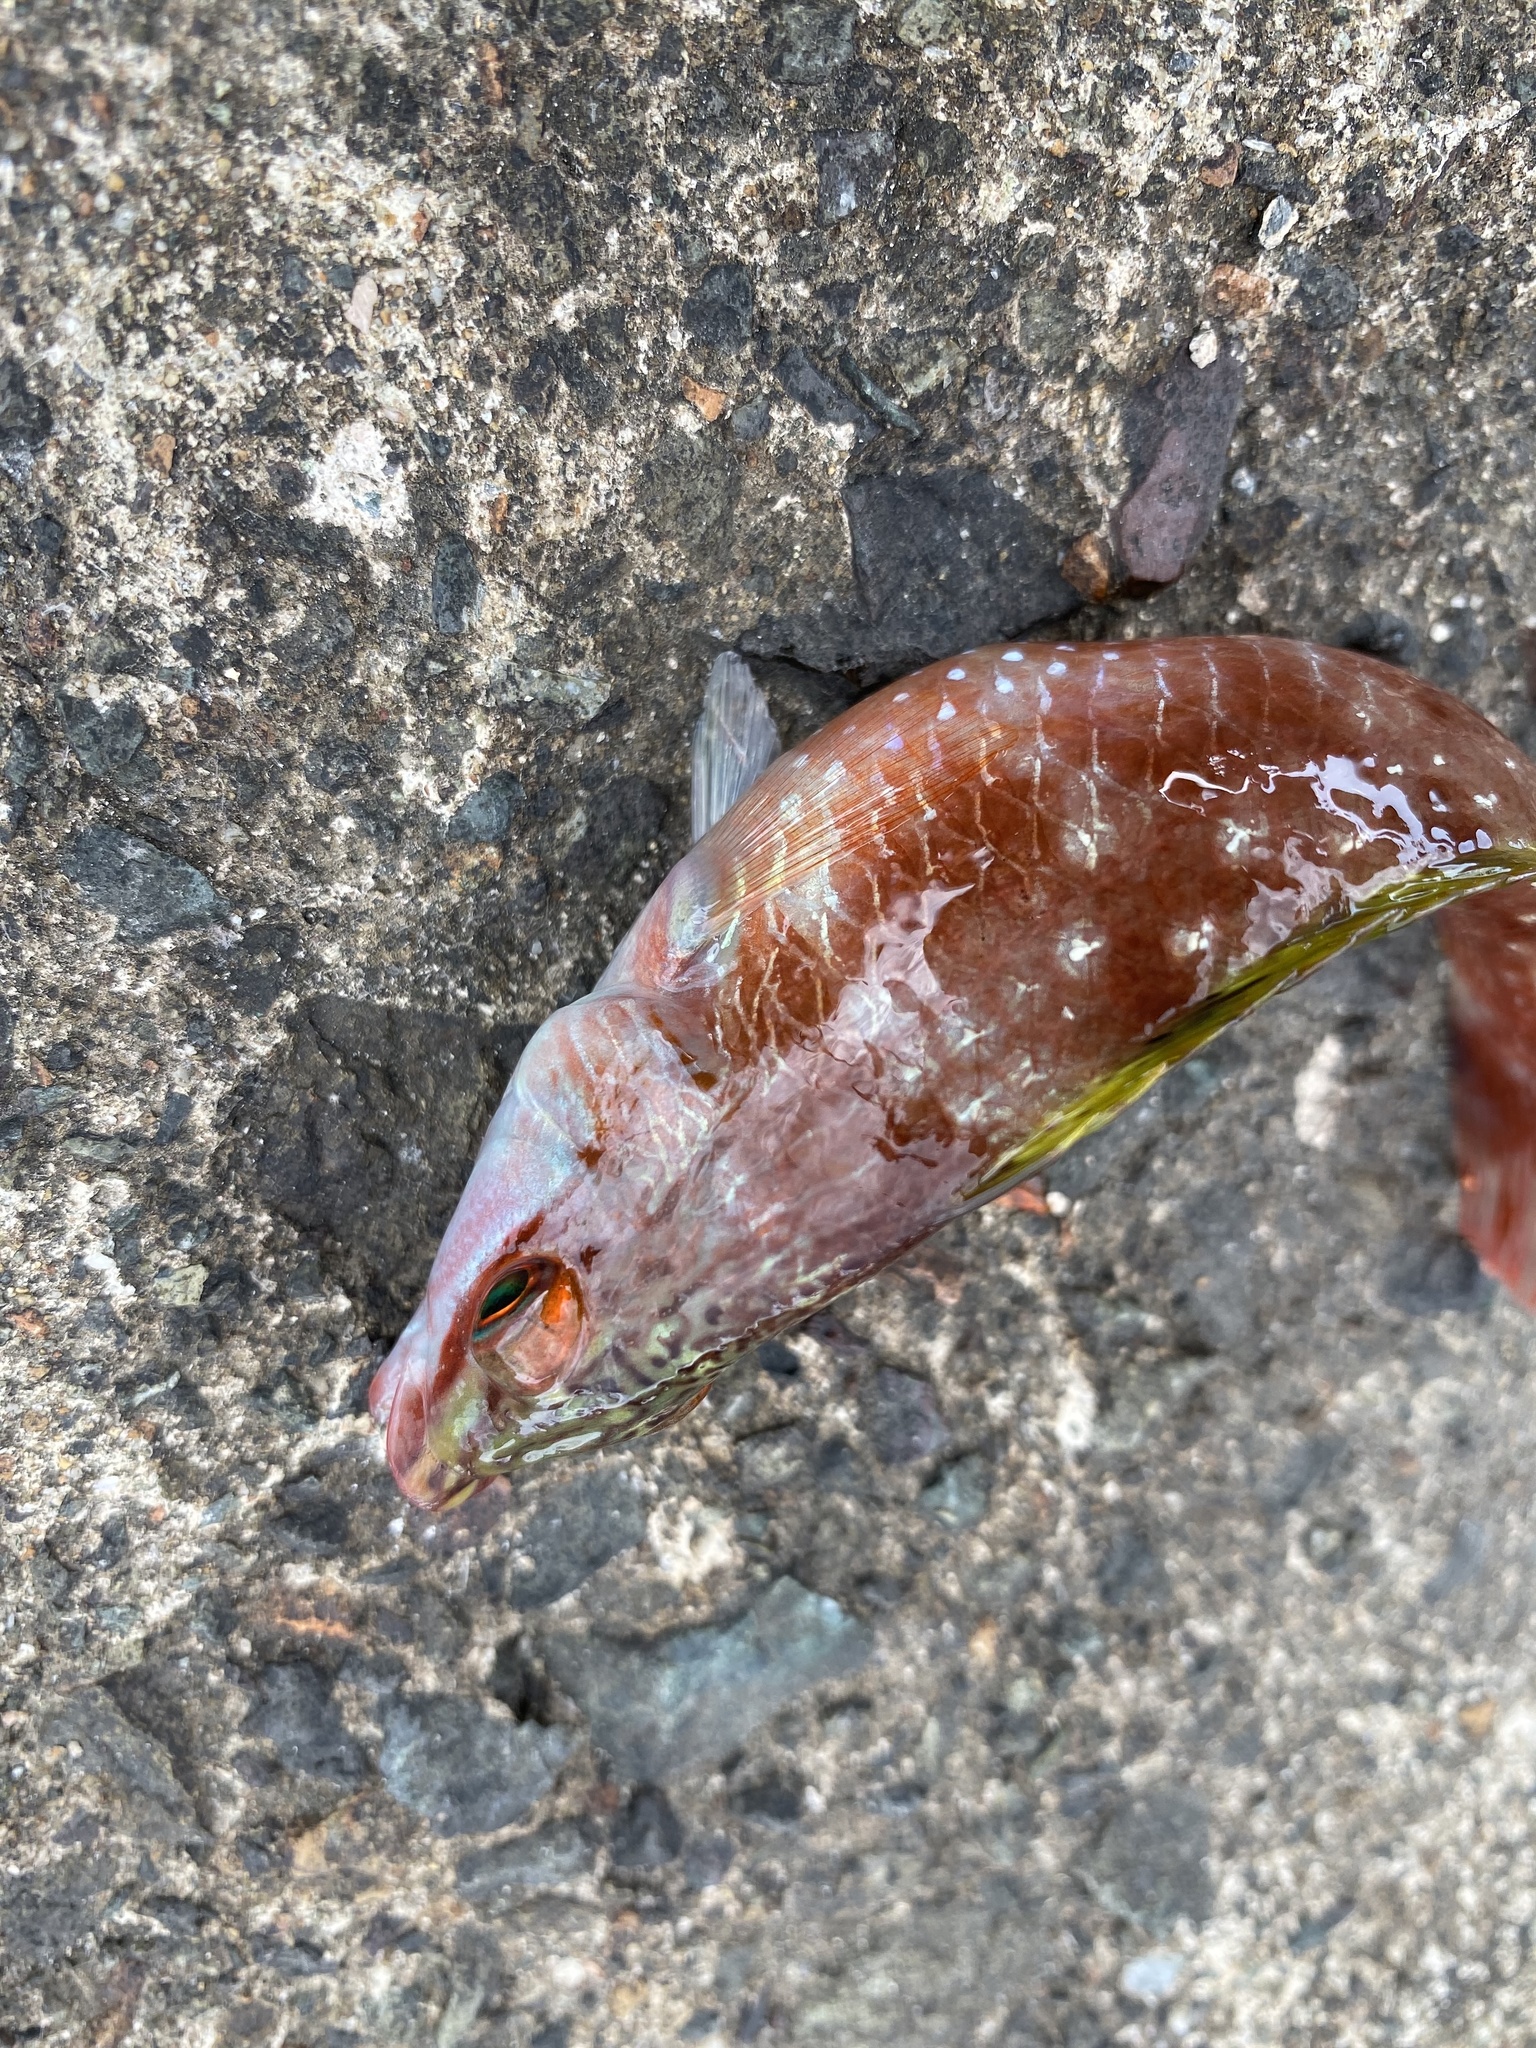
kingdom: Animalia
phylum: Chordata
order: Perciformes
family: Labridae
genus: Pseudolabrus
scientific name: Pseudolabrus sieboldi
